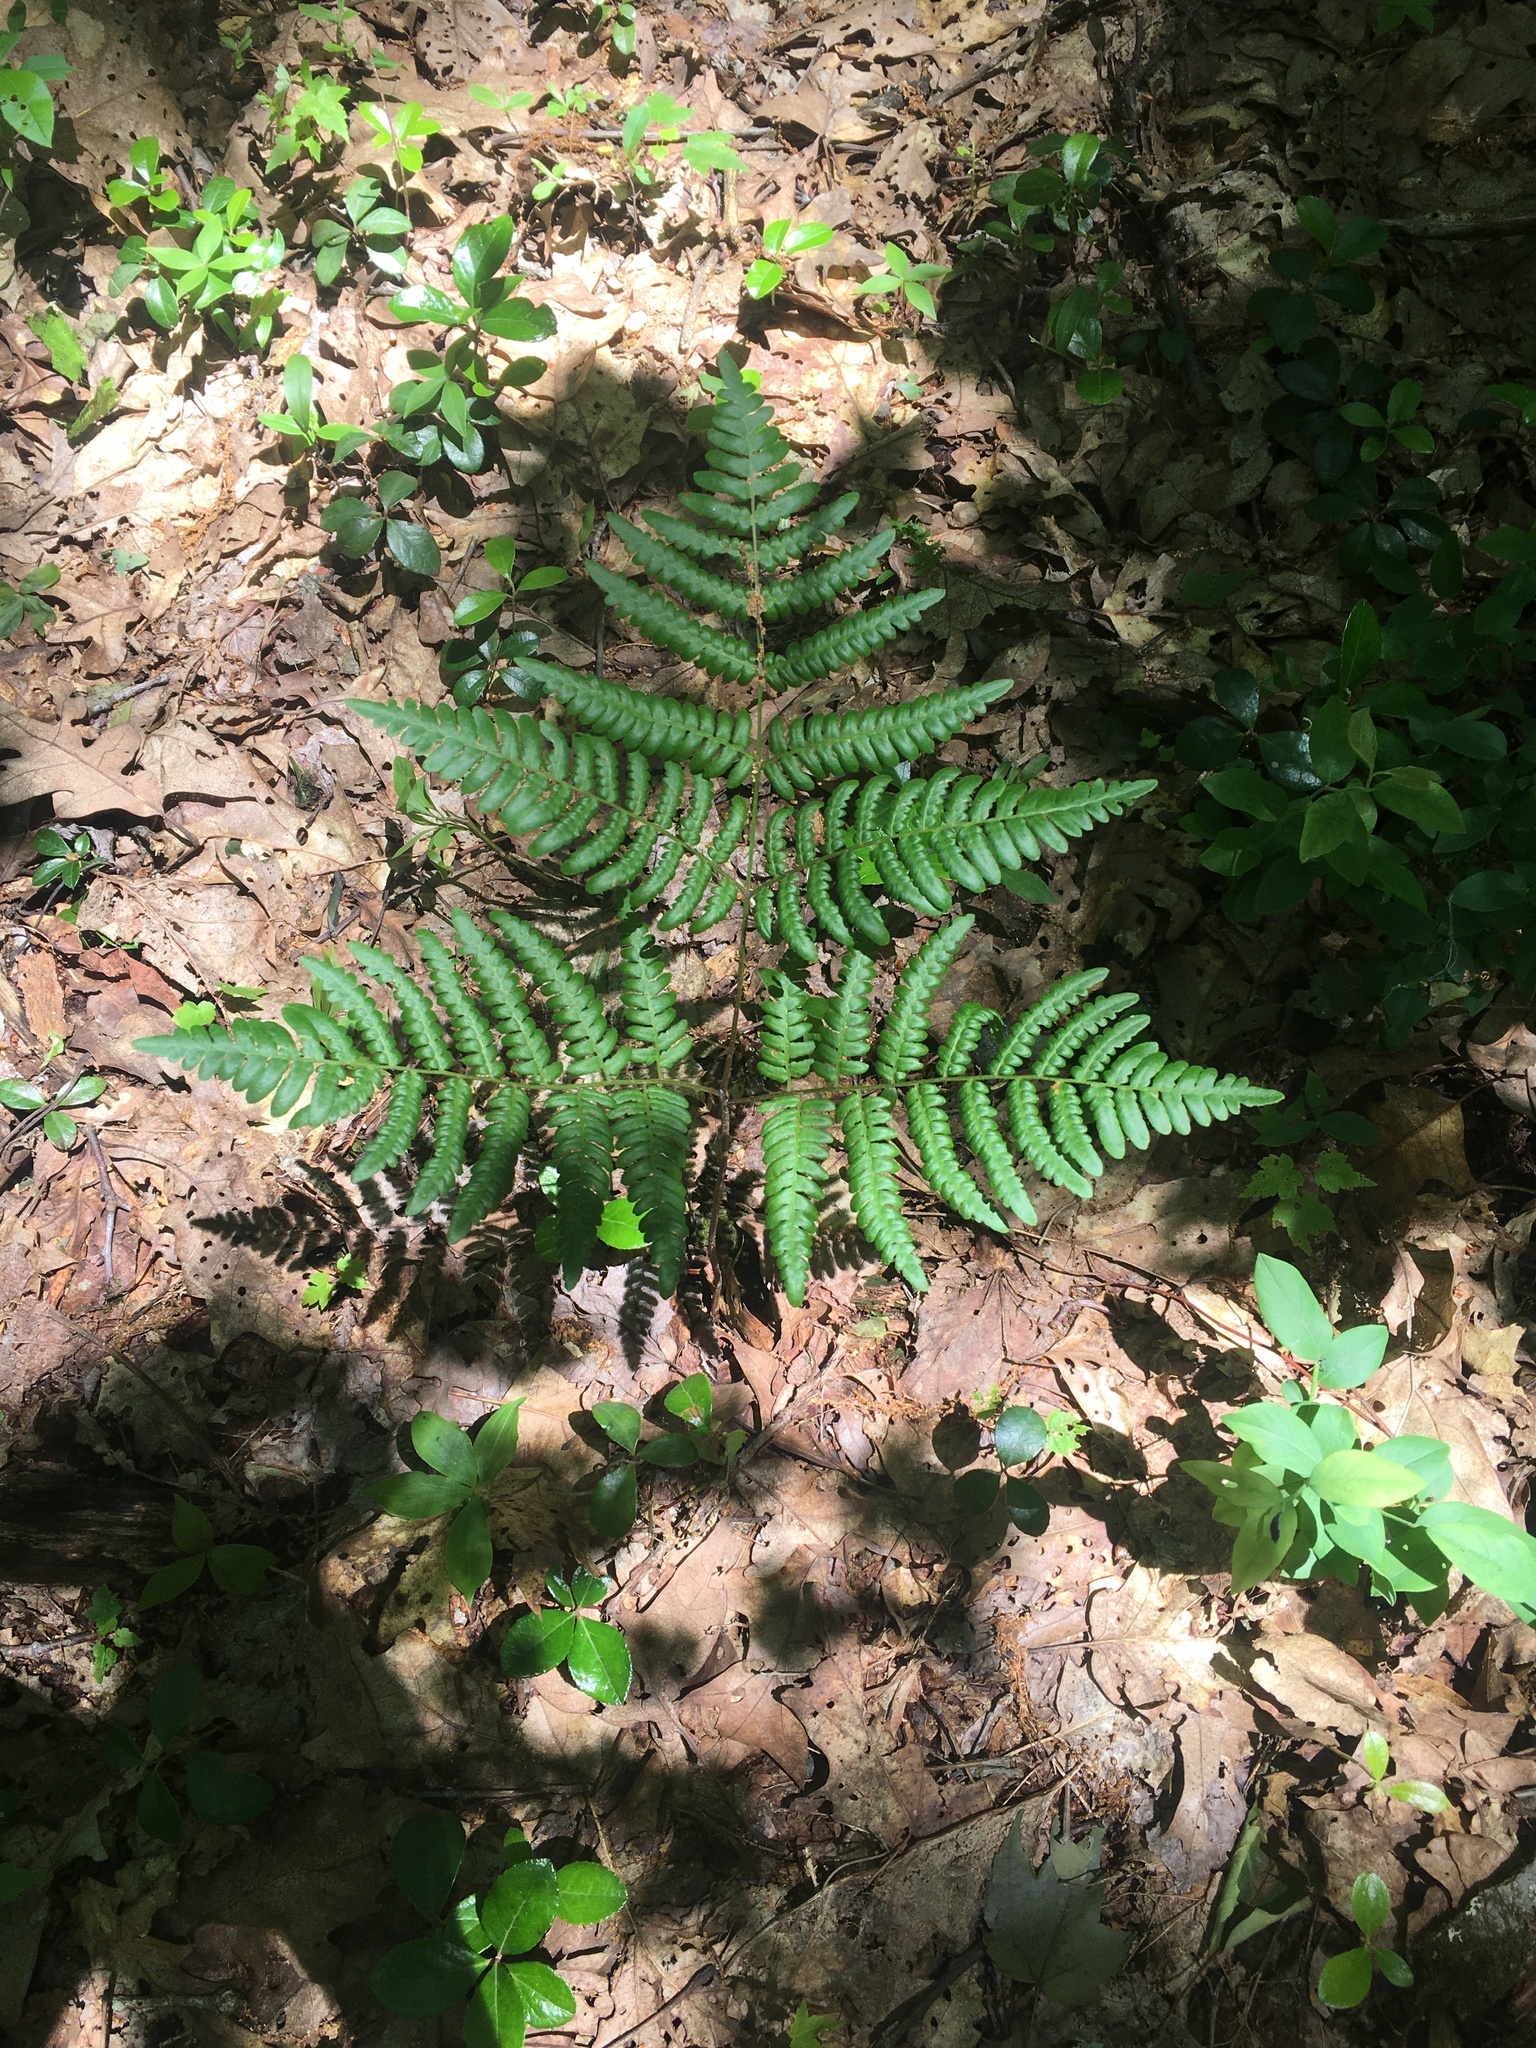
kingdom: Plantae
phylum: Tracheophyta
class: Polypodiopsida
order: Polypodiales
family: Dennstaedtiaceae
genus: Pteridium
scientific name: Pteridium aquilinum
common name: Bracken
